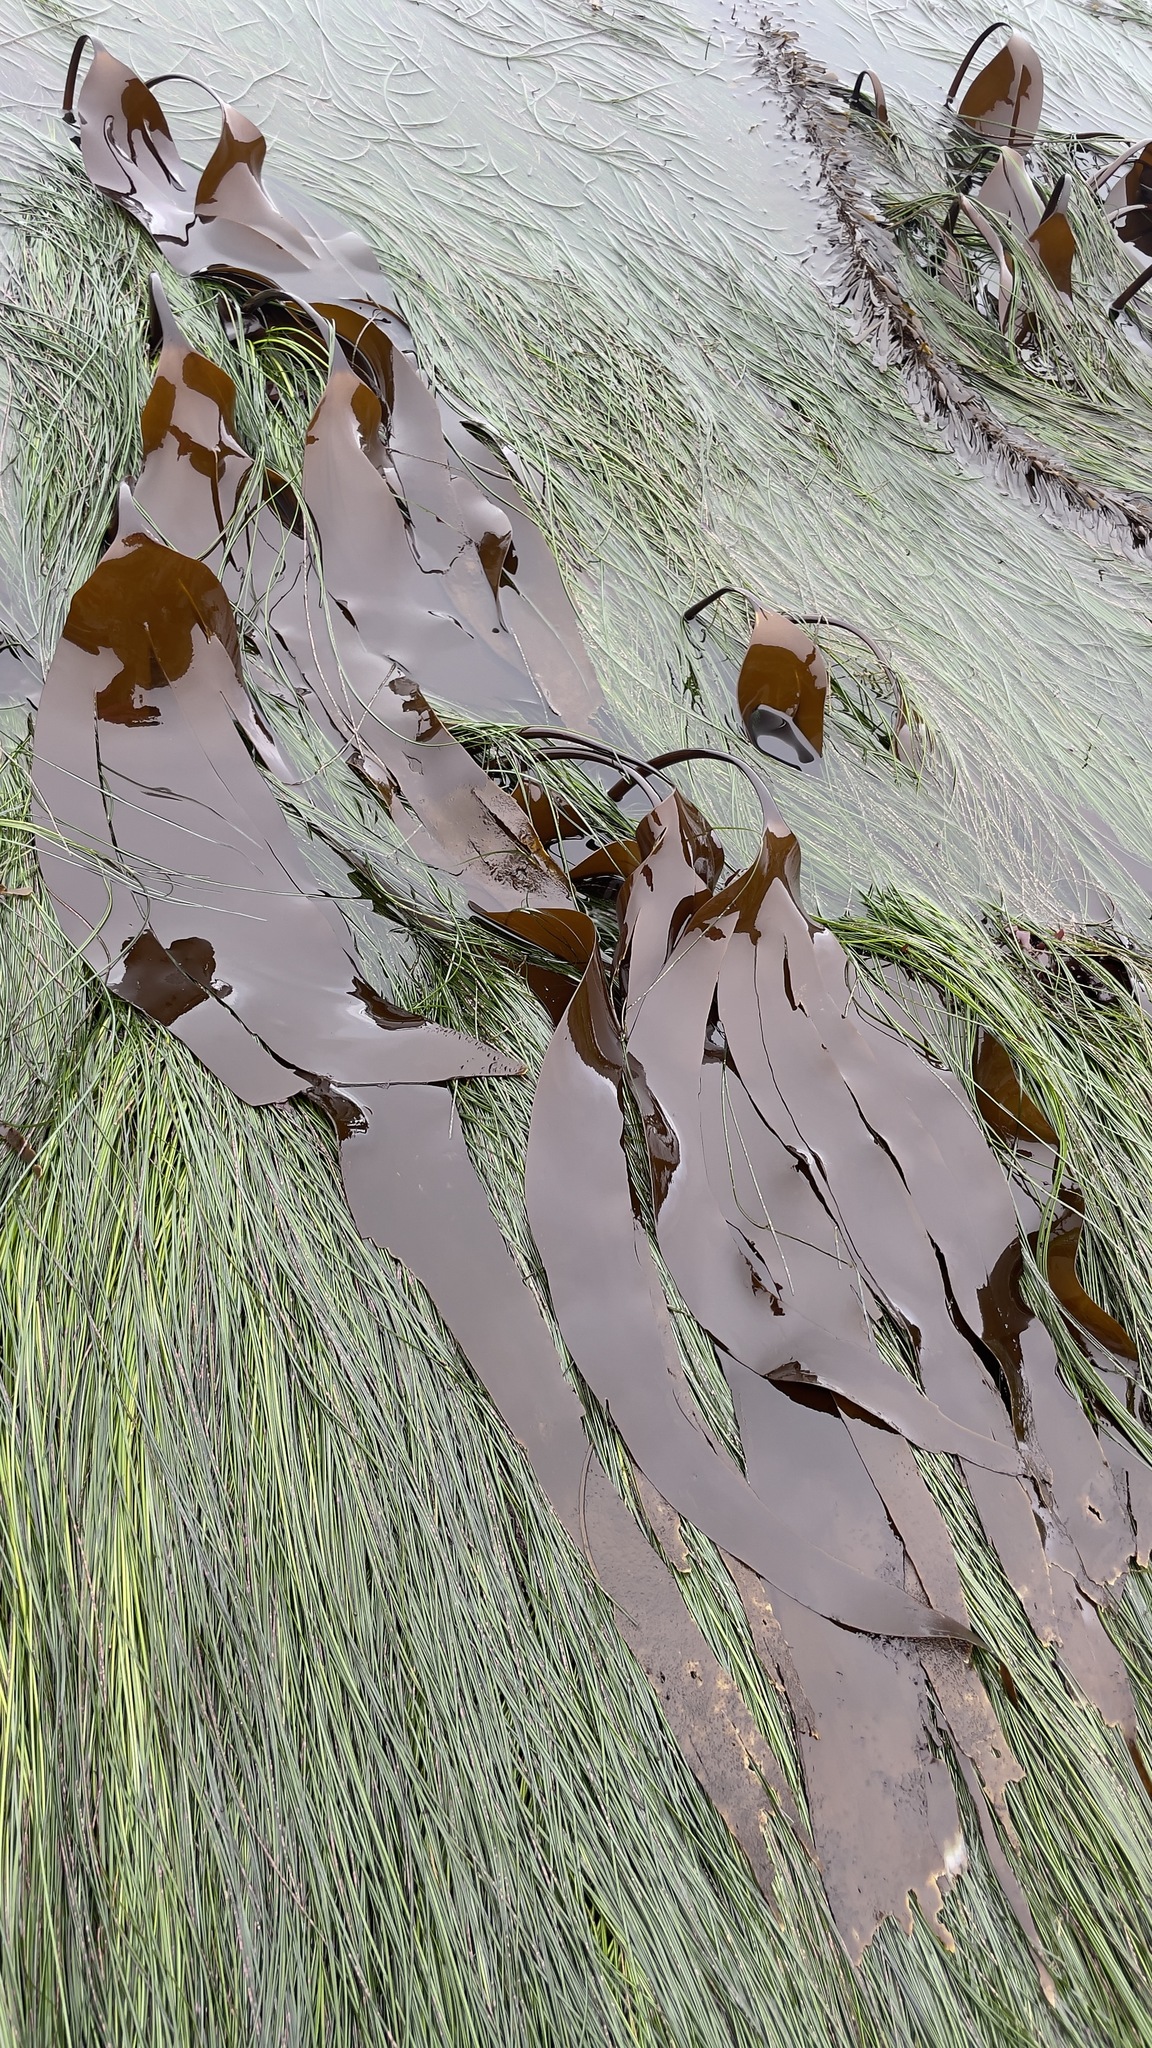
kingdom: Chromista
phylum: Ochrophyta
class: Phaeophyceae
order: Laminariales
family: Laminariaceae
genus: Laminaria
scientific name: Laminaria setchellii
